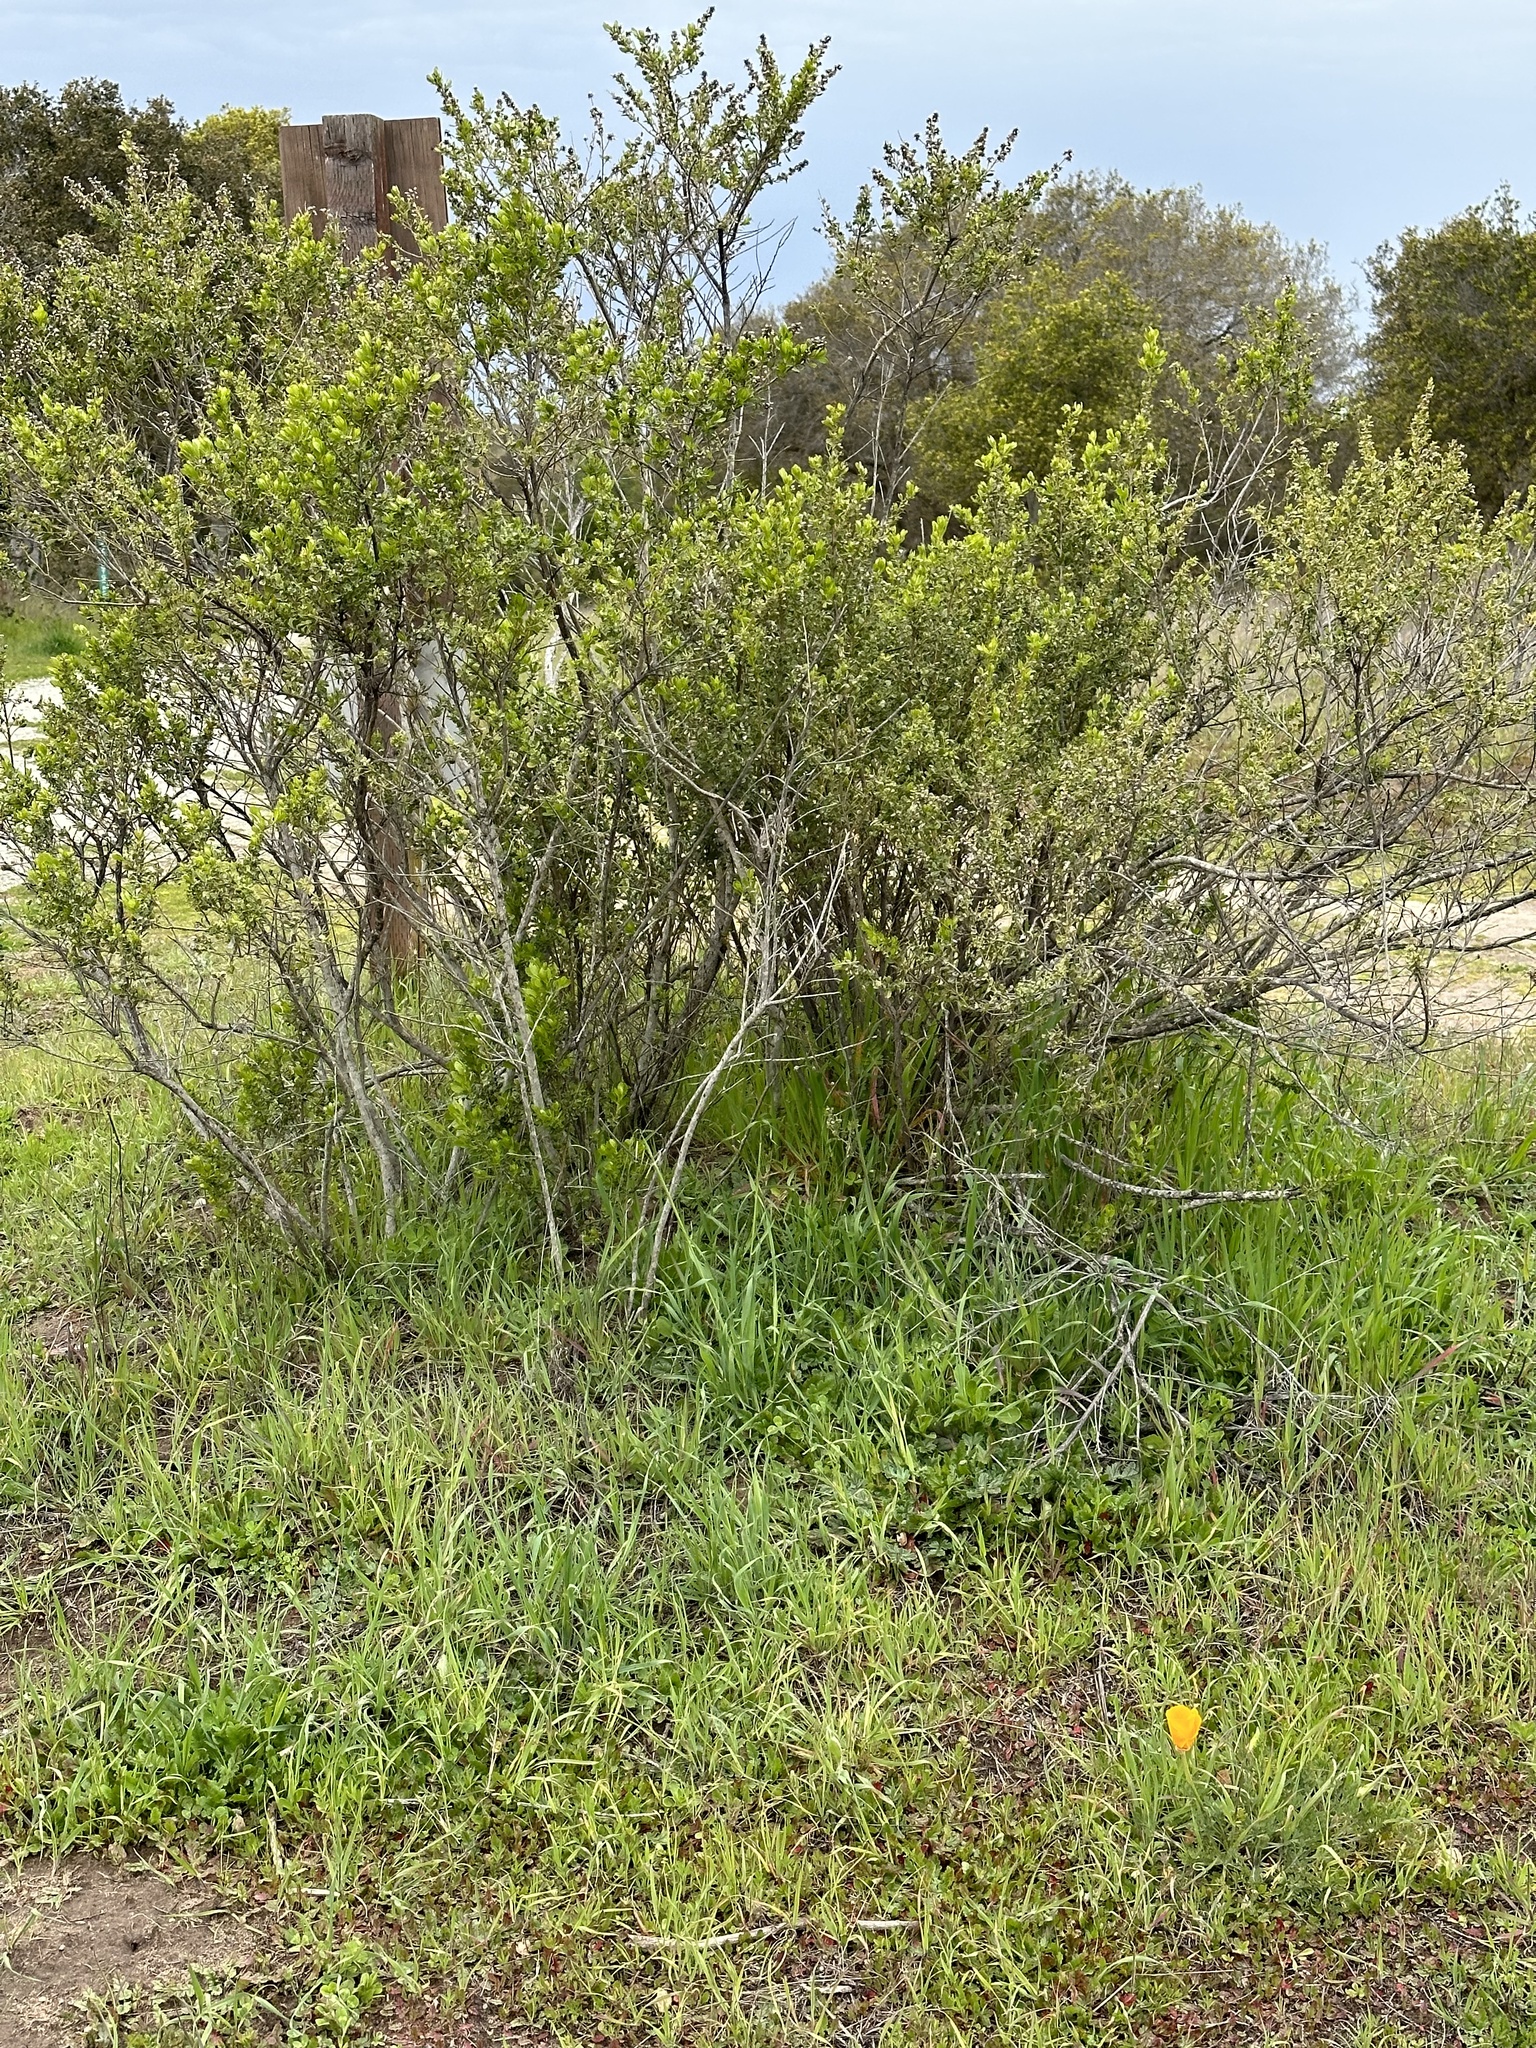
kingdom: Plantae
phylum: Tracheophyta
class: Magnoliopsida
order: Ranunculales
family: Papaveraceae
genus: Eschscholzia
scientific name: Eschscholzia californica
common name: California poppy
